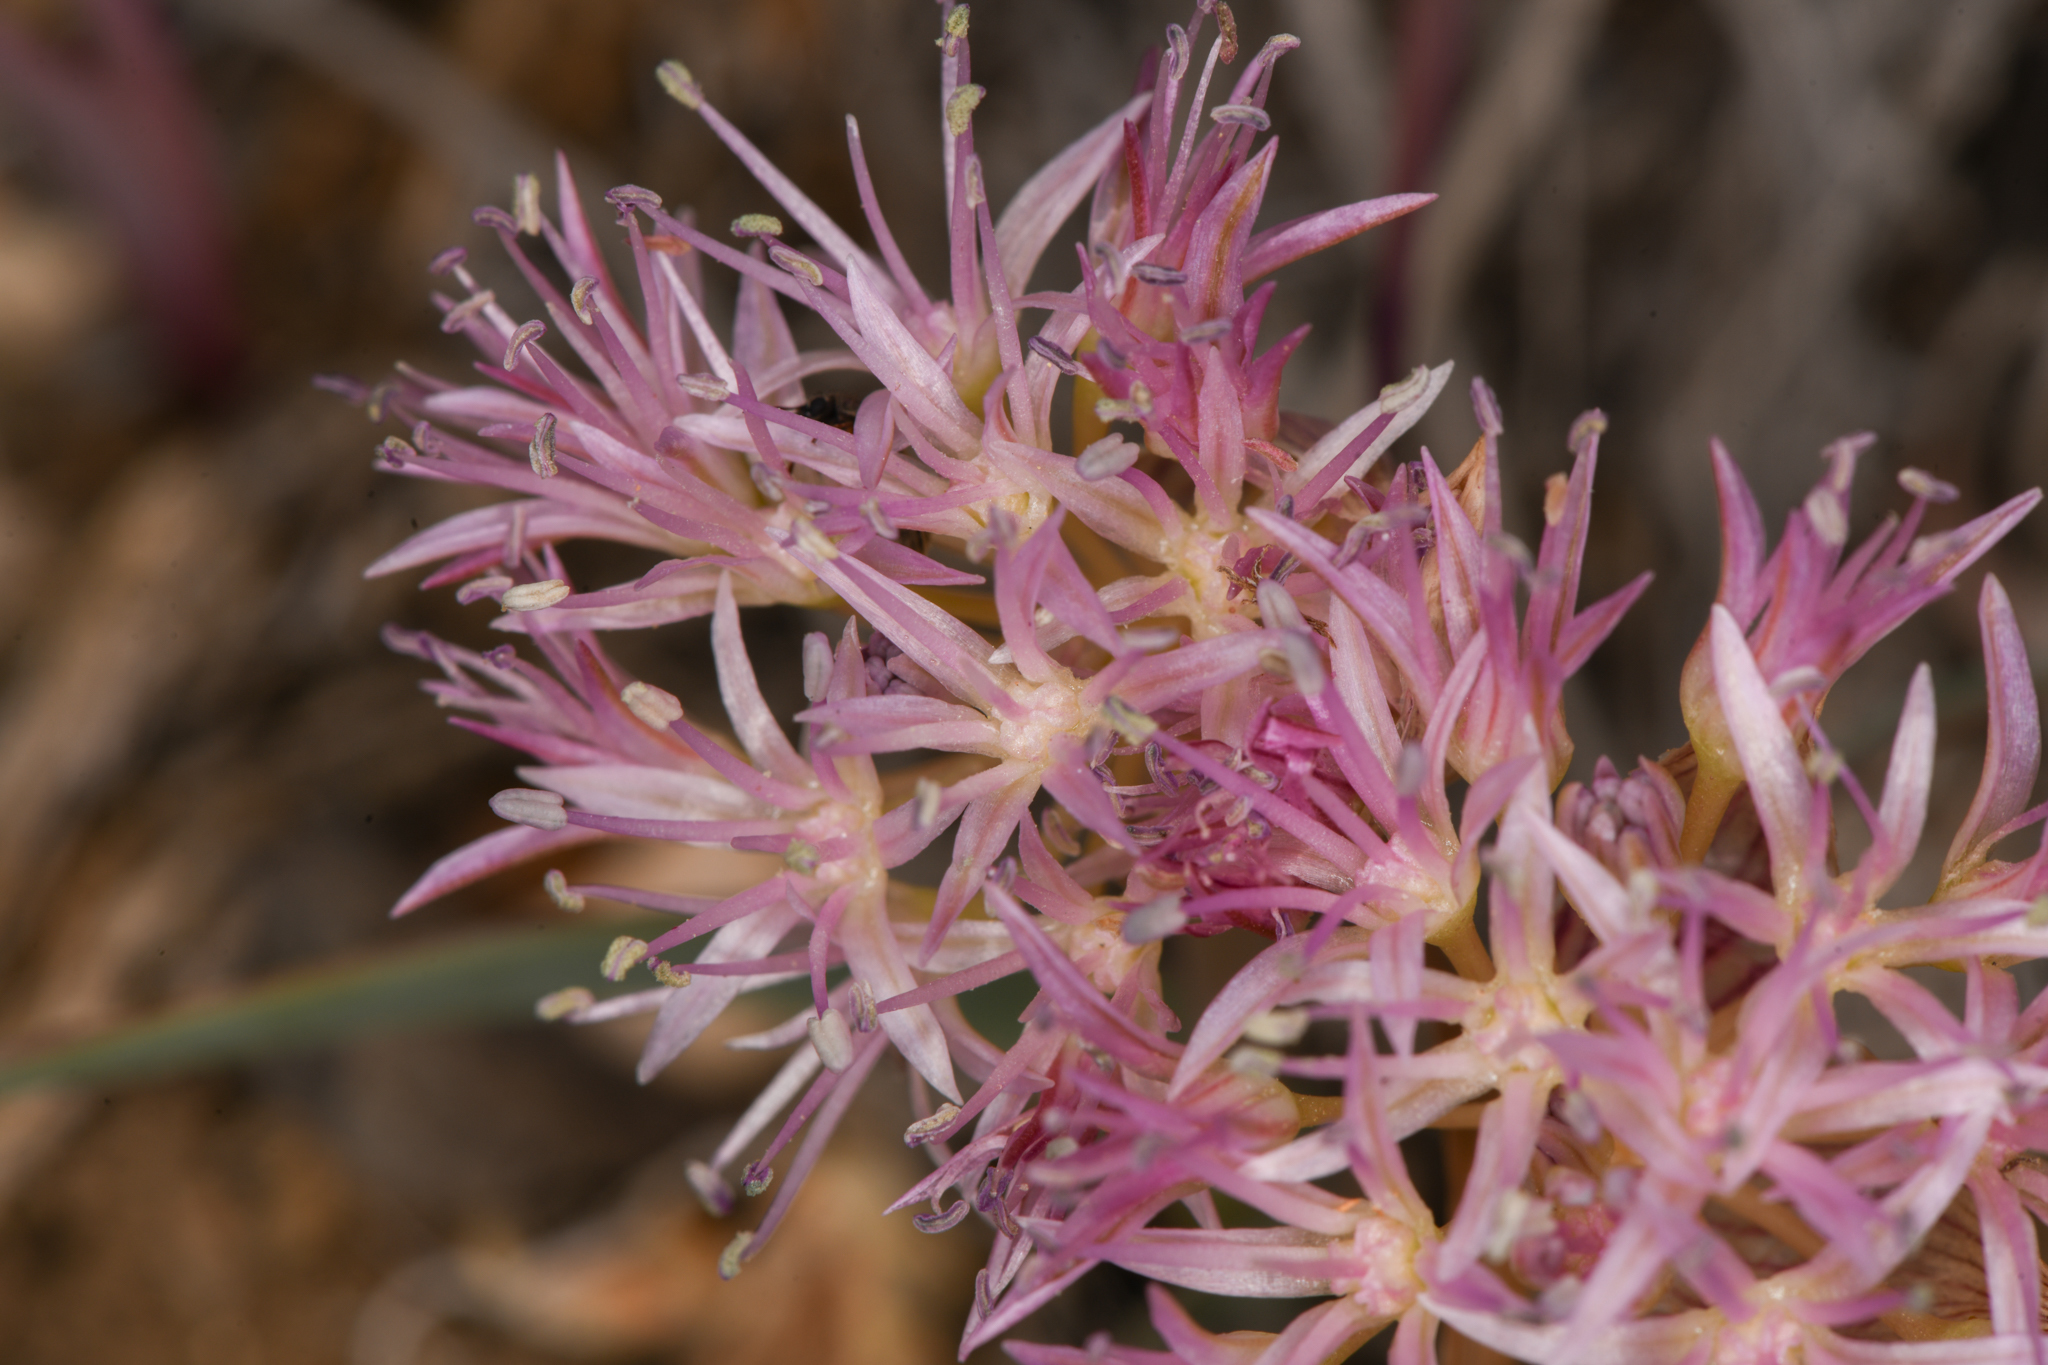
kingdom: Plantae
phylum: Tracheophyta
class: Liliopsida
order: Asparagales
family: Amaryllidaceae
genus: Allium
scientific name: Allium anceps
